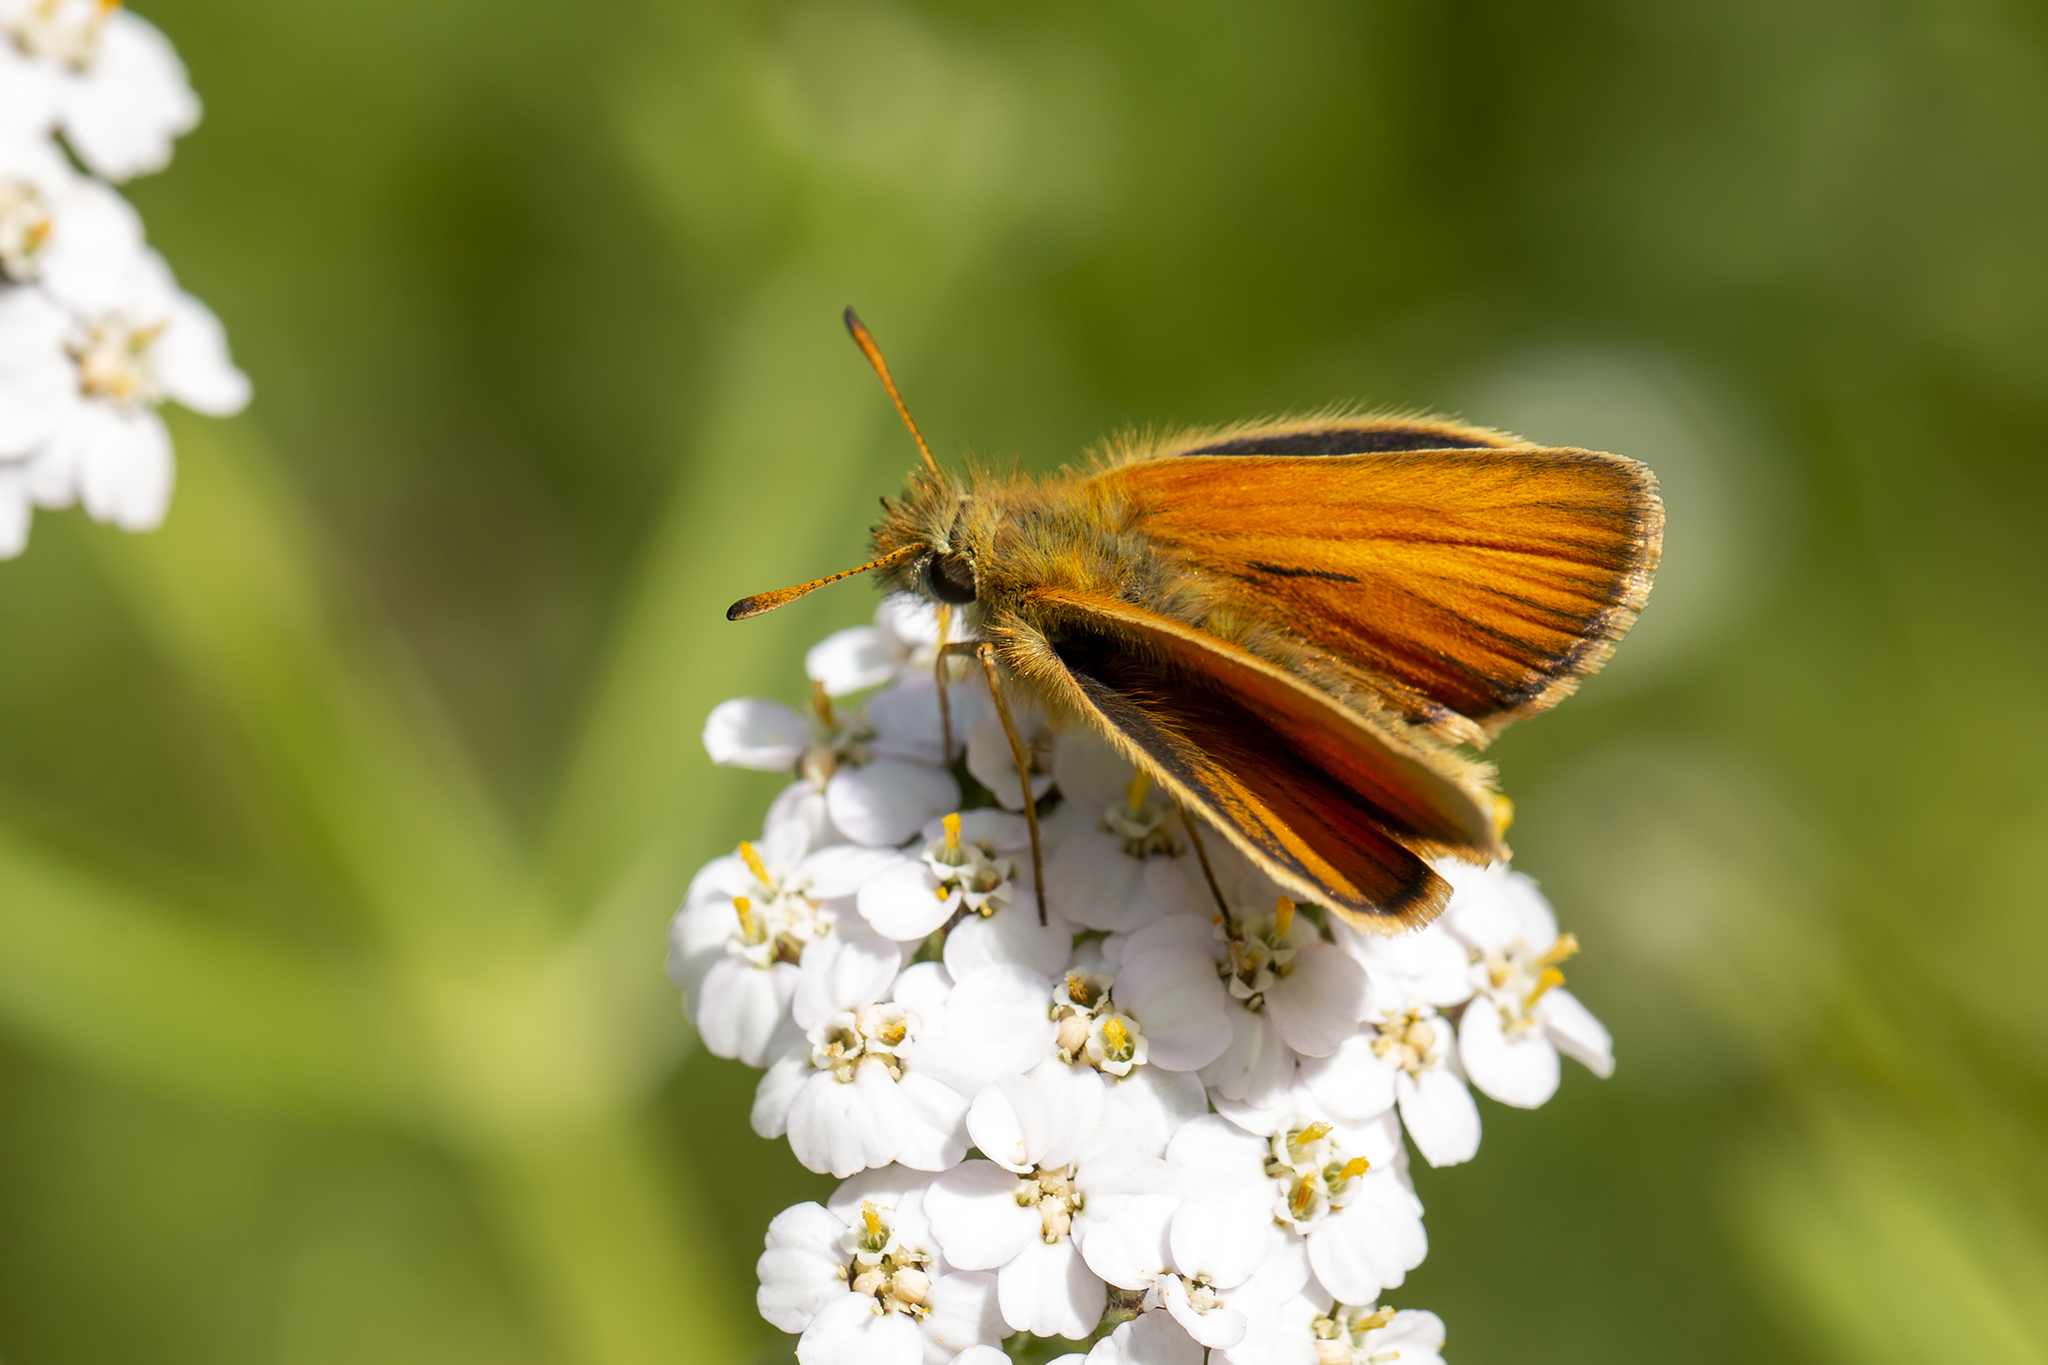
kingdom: Animalia
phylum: Arthropoda
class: Insecta
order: Lepidoptera
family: Hesperiidae
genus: Thymelicus
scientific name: Thymelicus lineola
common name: Essex skipper
